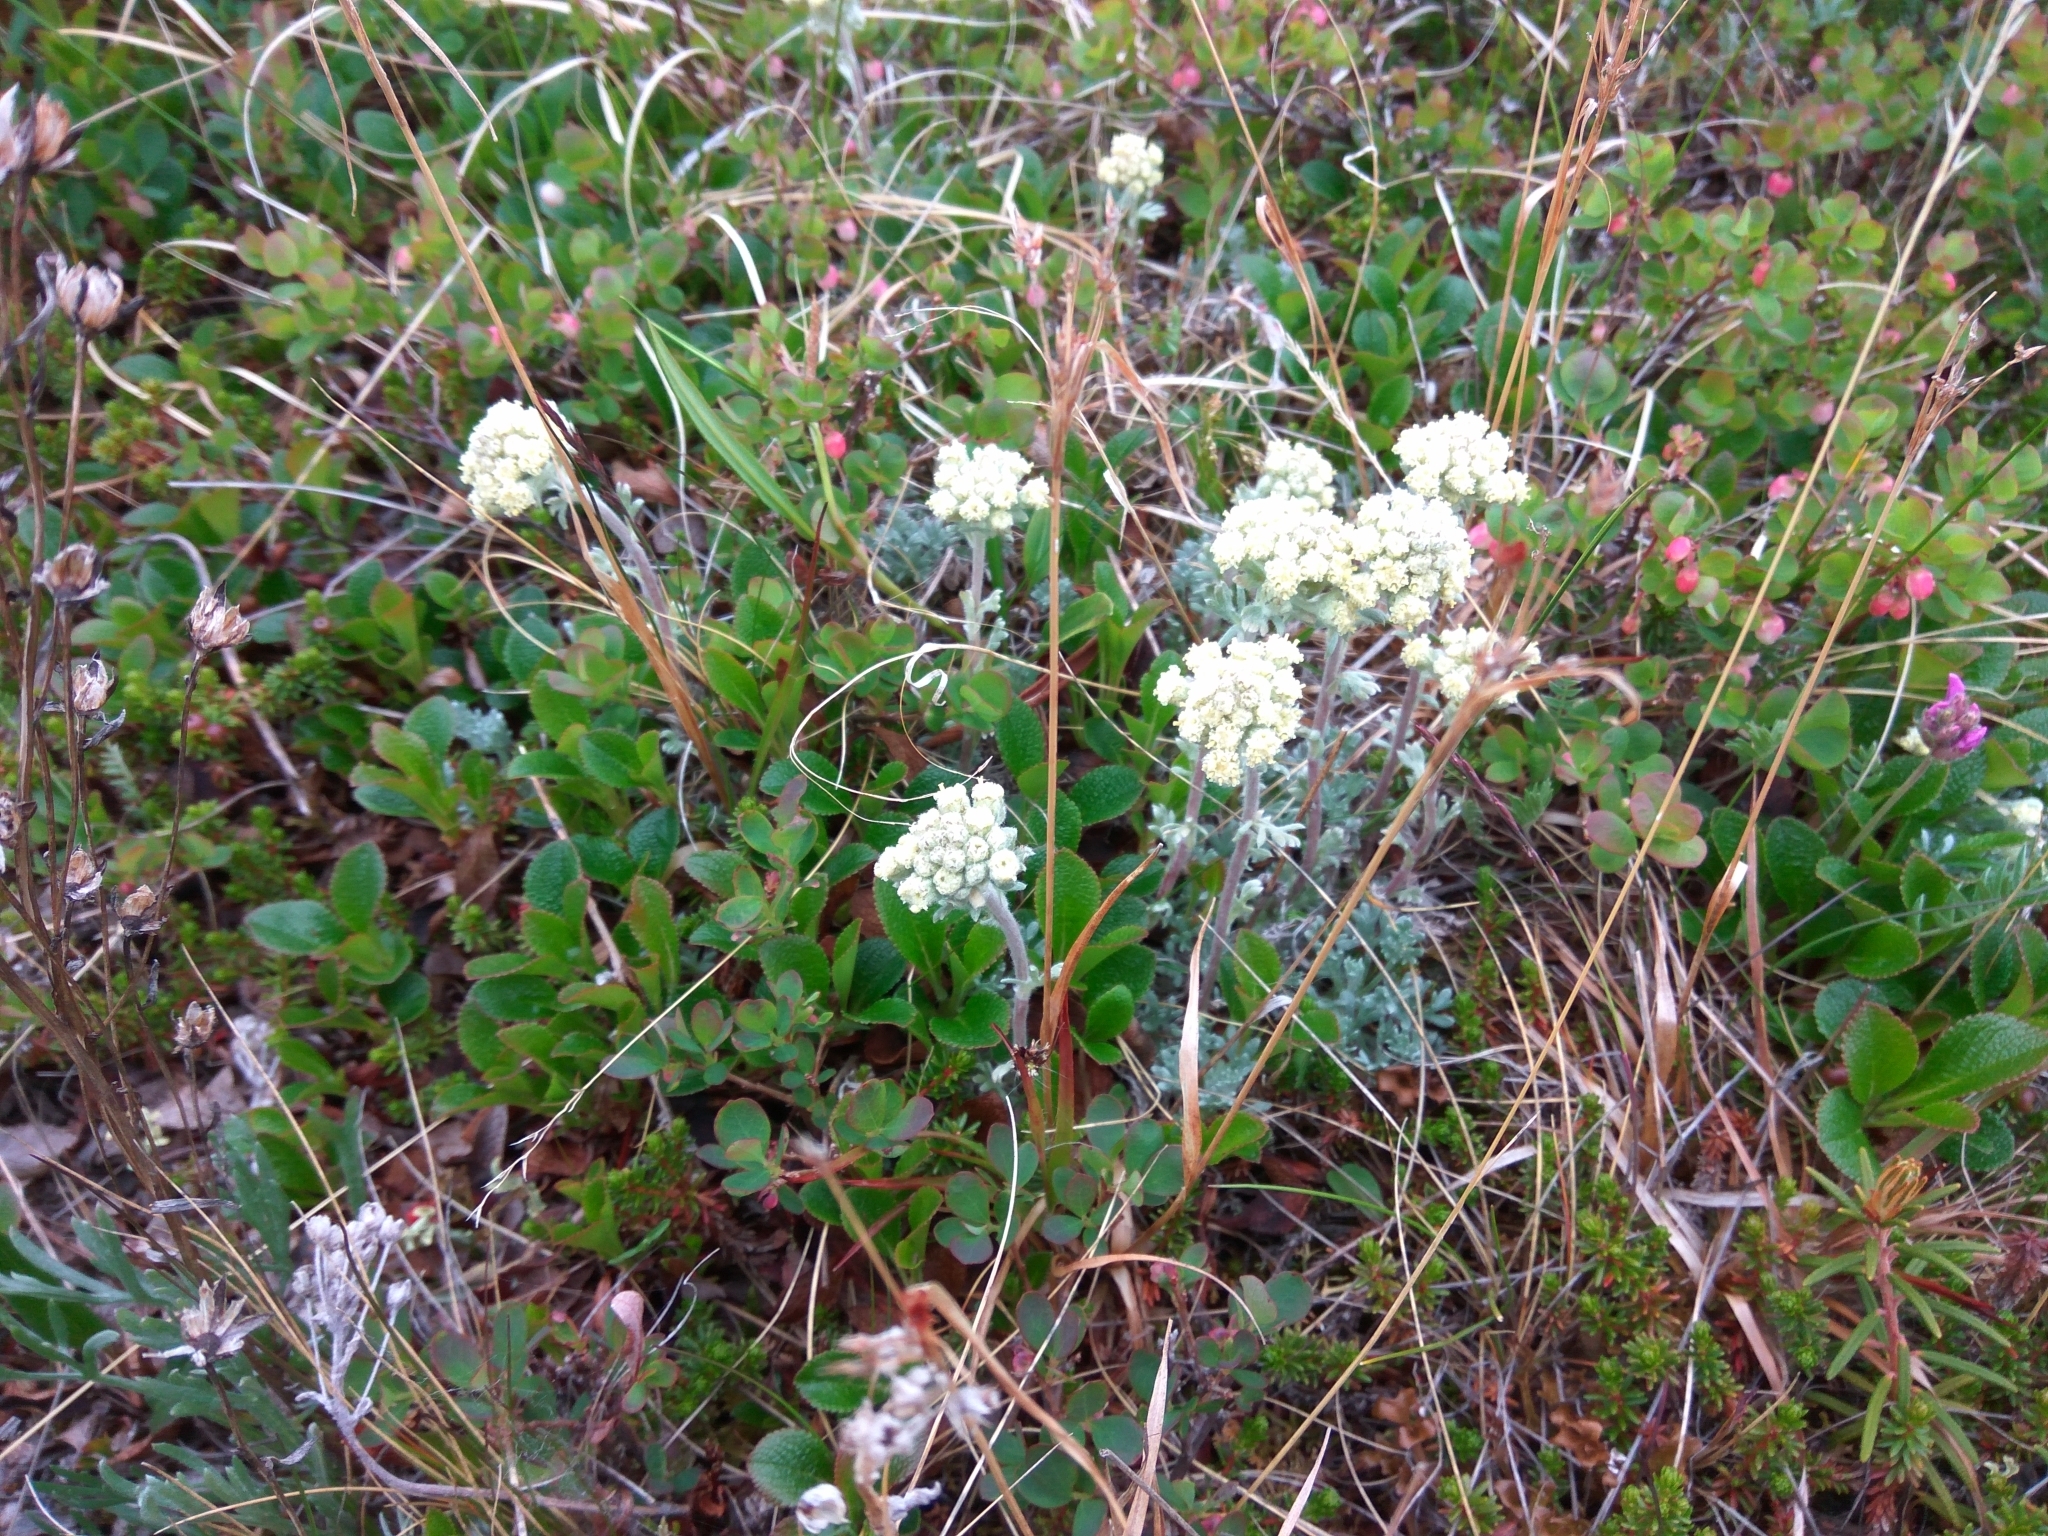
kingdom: Plantae
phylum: Tracheophyta
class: Magnoliopsida
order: Asterales
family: Asteraceae
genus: Artemisia
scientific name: Artemisia glomerata
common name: Pacific alpine wormwood
